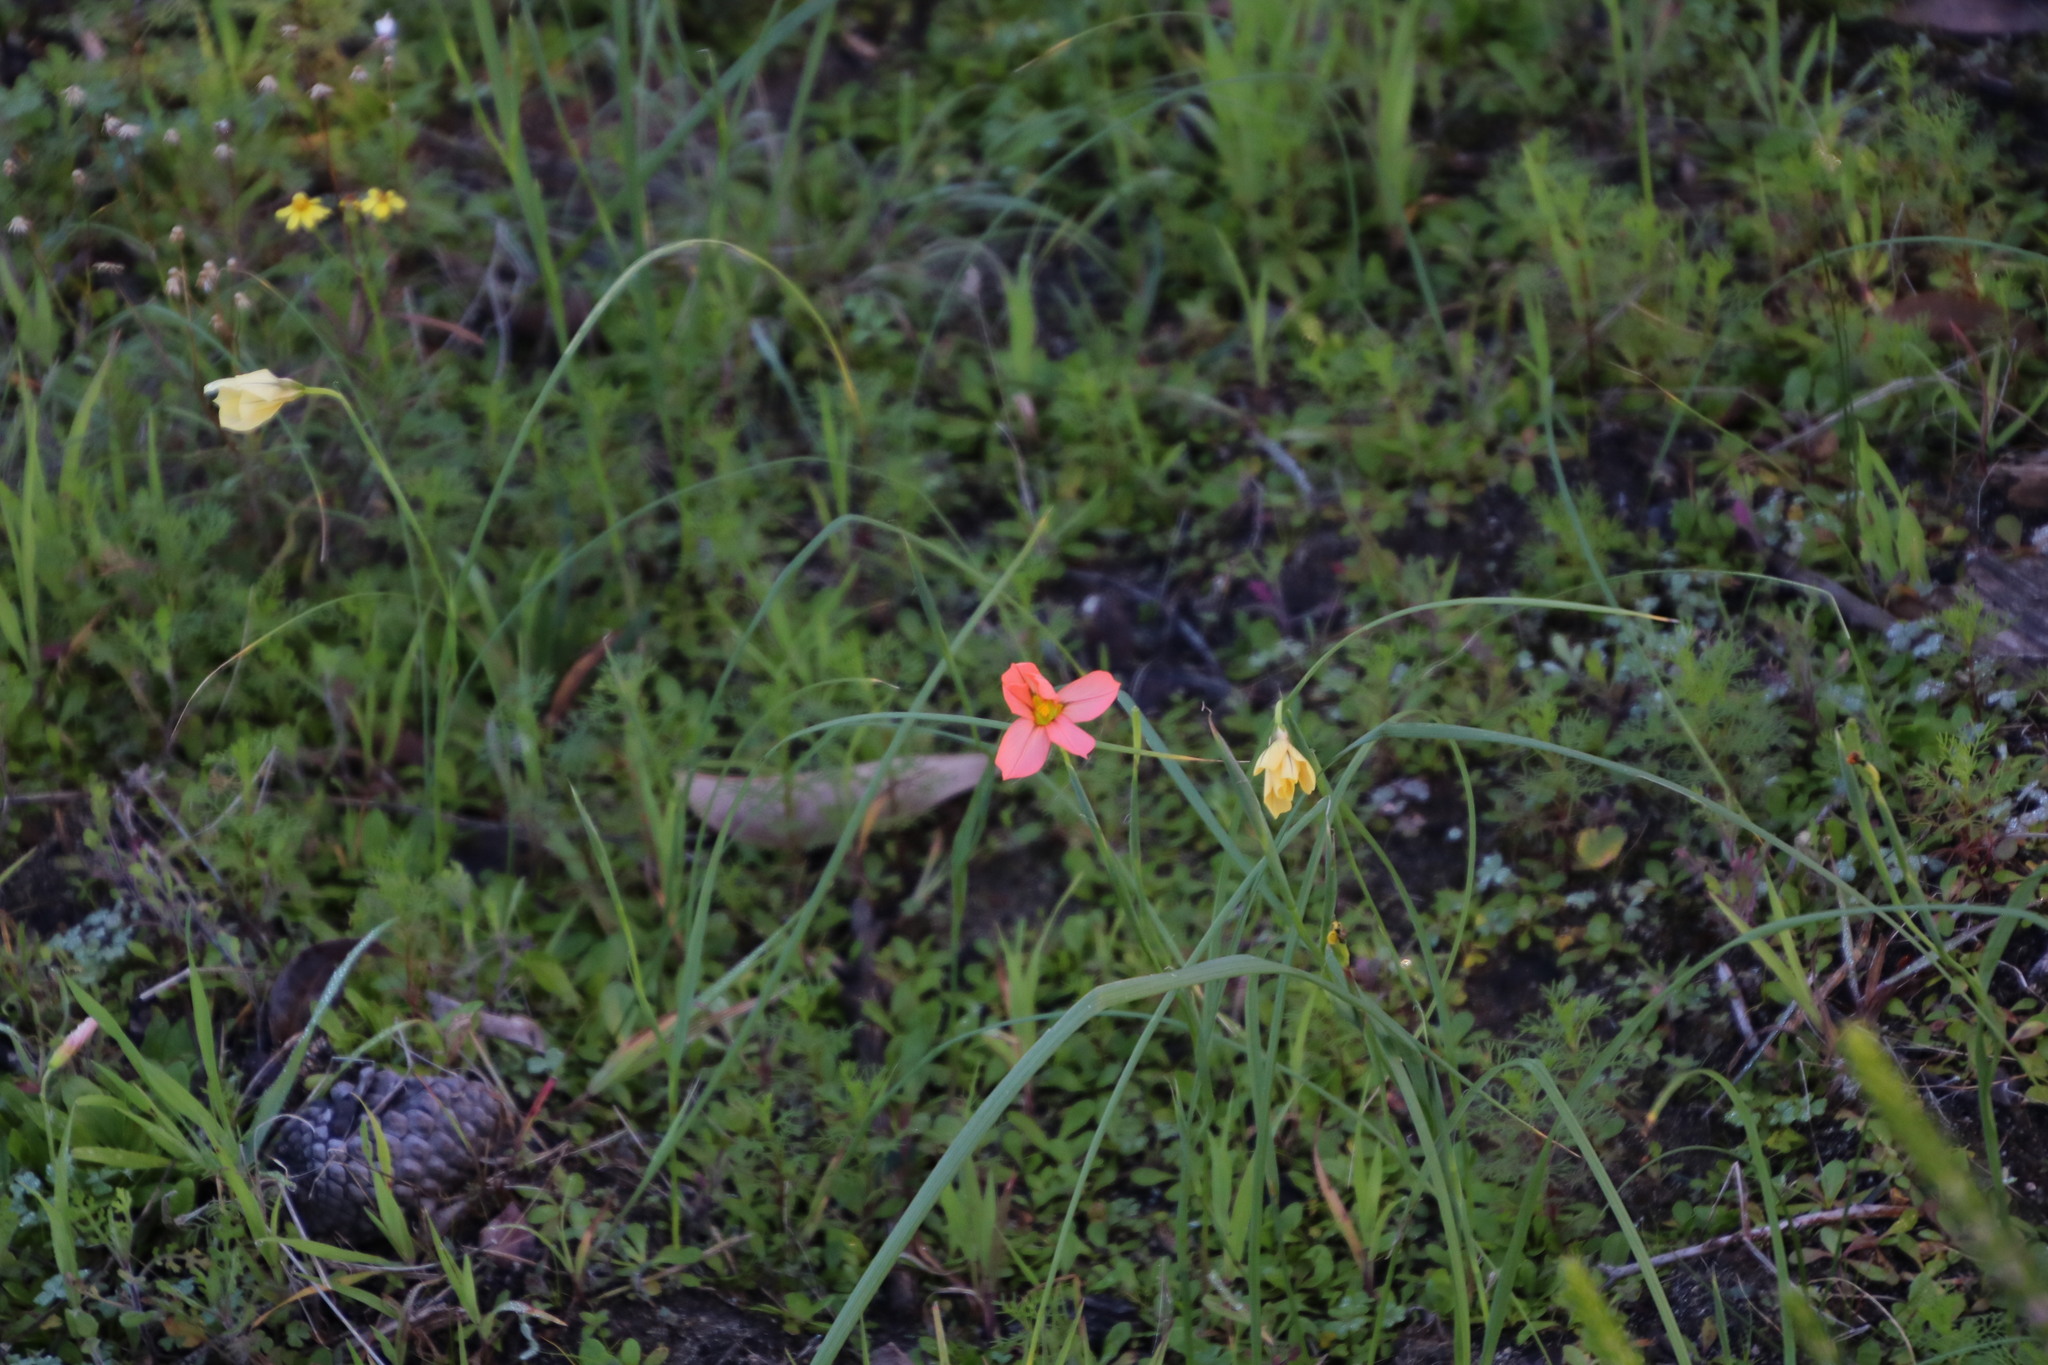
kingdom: Plantae
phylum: Tracheophyta
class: Liliopsida
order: Asparagales
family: Iridaceae
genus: Moraea
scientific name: Moraea flaccida
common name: One-leaf cape-tulip
